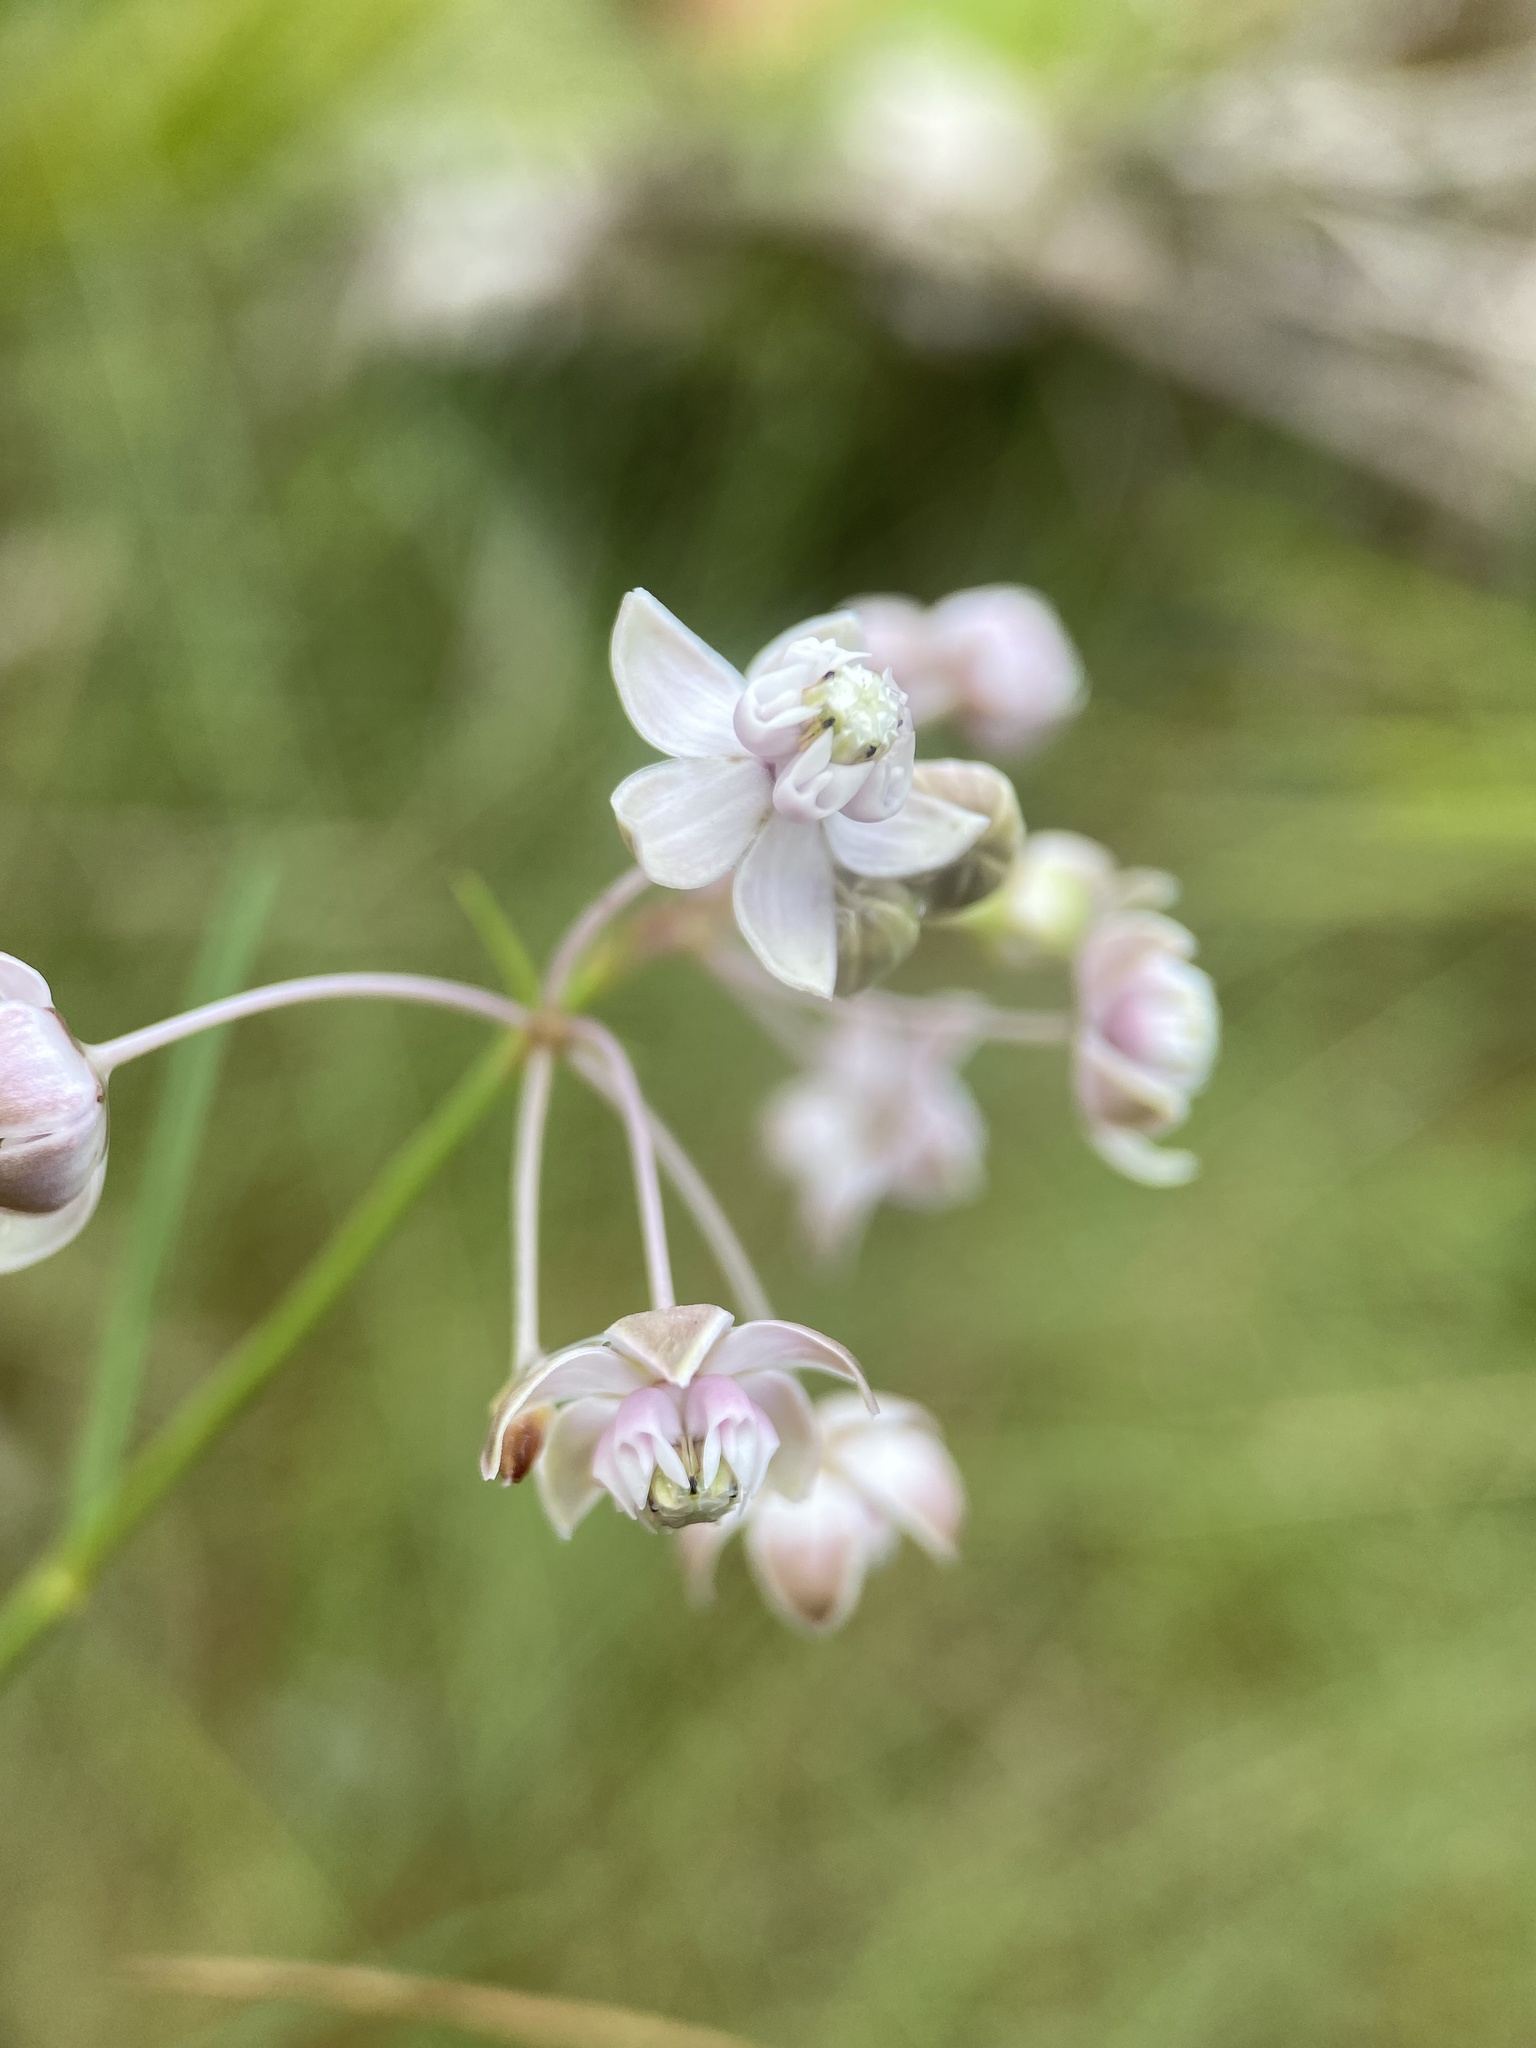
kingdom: Plantae
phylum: Tracheophyta
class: Magnoliopsida
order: Gentianales
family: Apocynaceae
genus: Asclepias
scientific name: Asclepias cinerea
